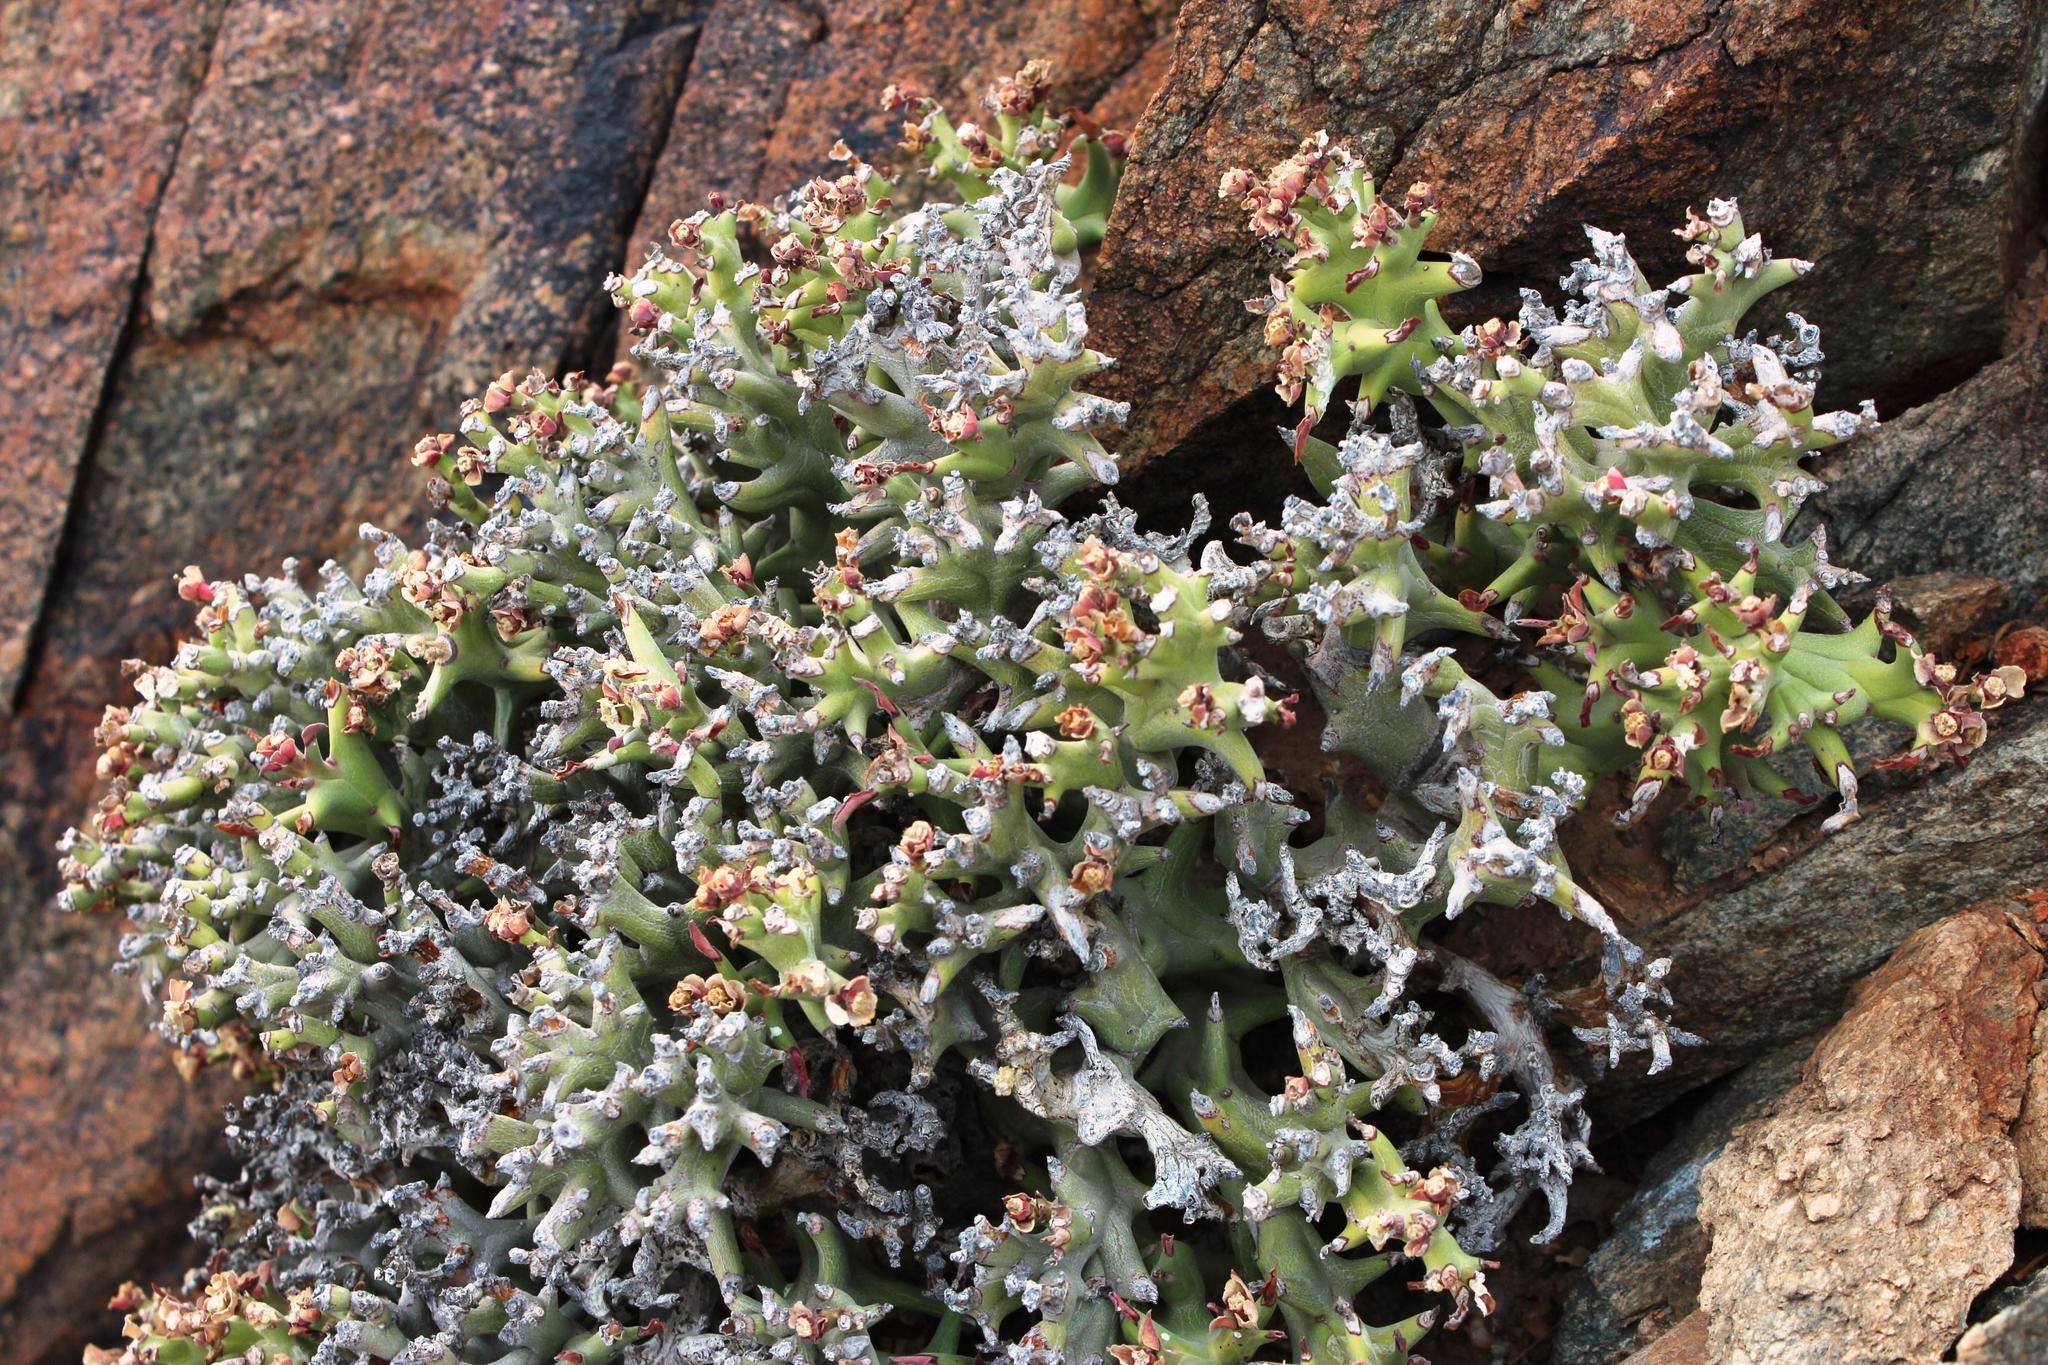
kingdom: Plantae
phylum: Tracheophyta
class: Magnoliopsida
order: Malpighiales
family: Euphorbiaceae
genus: Euphorbia
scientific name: Euphorbia hamata
